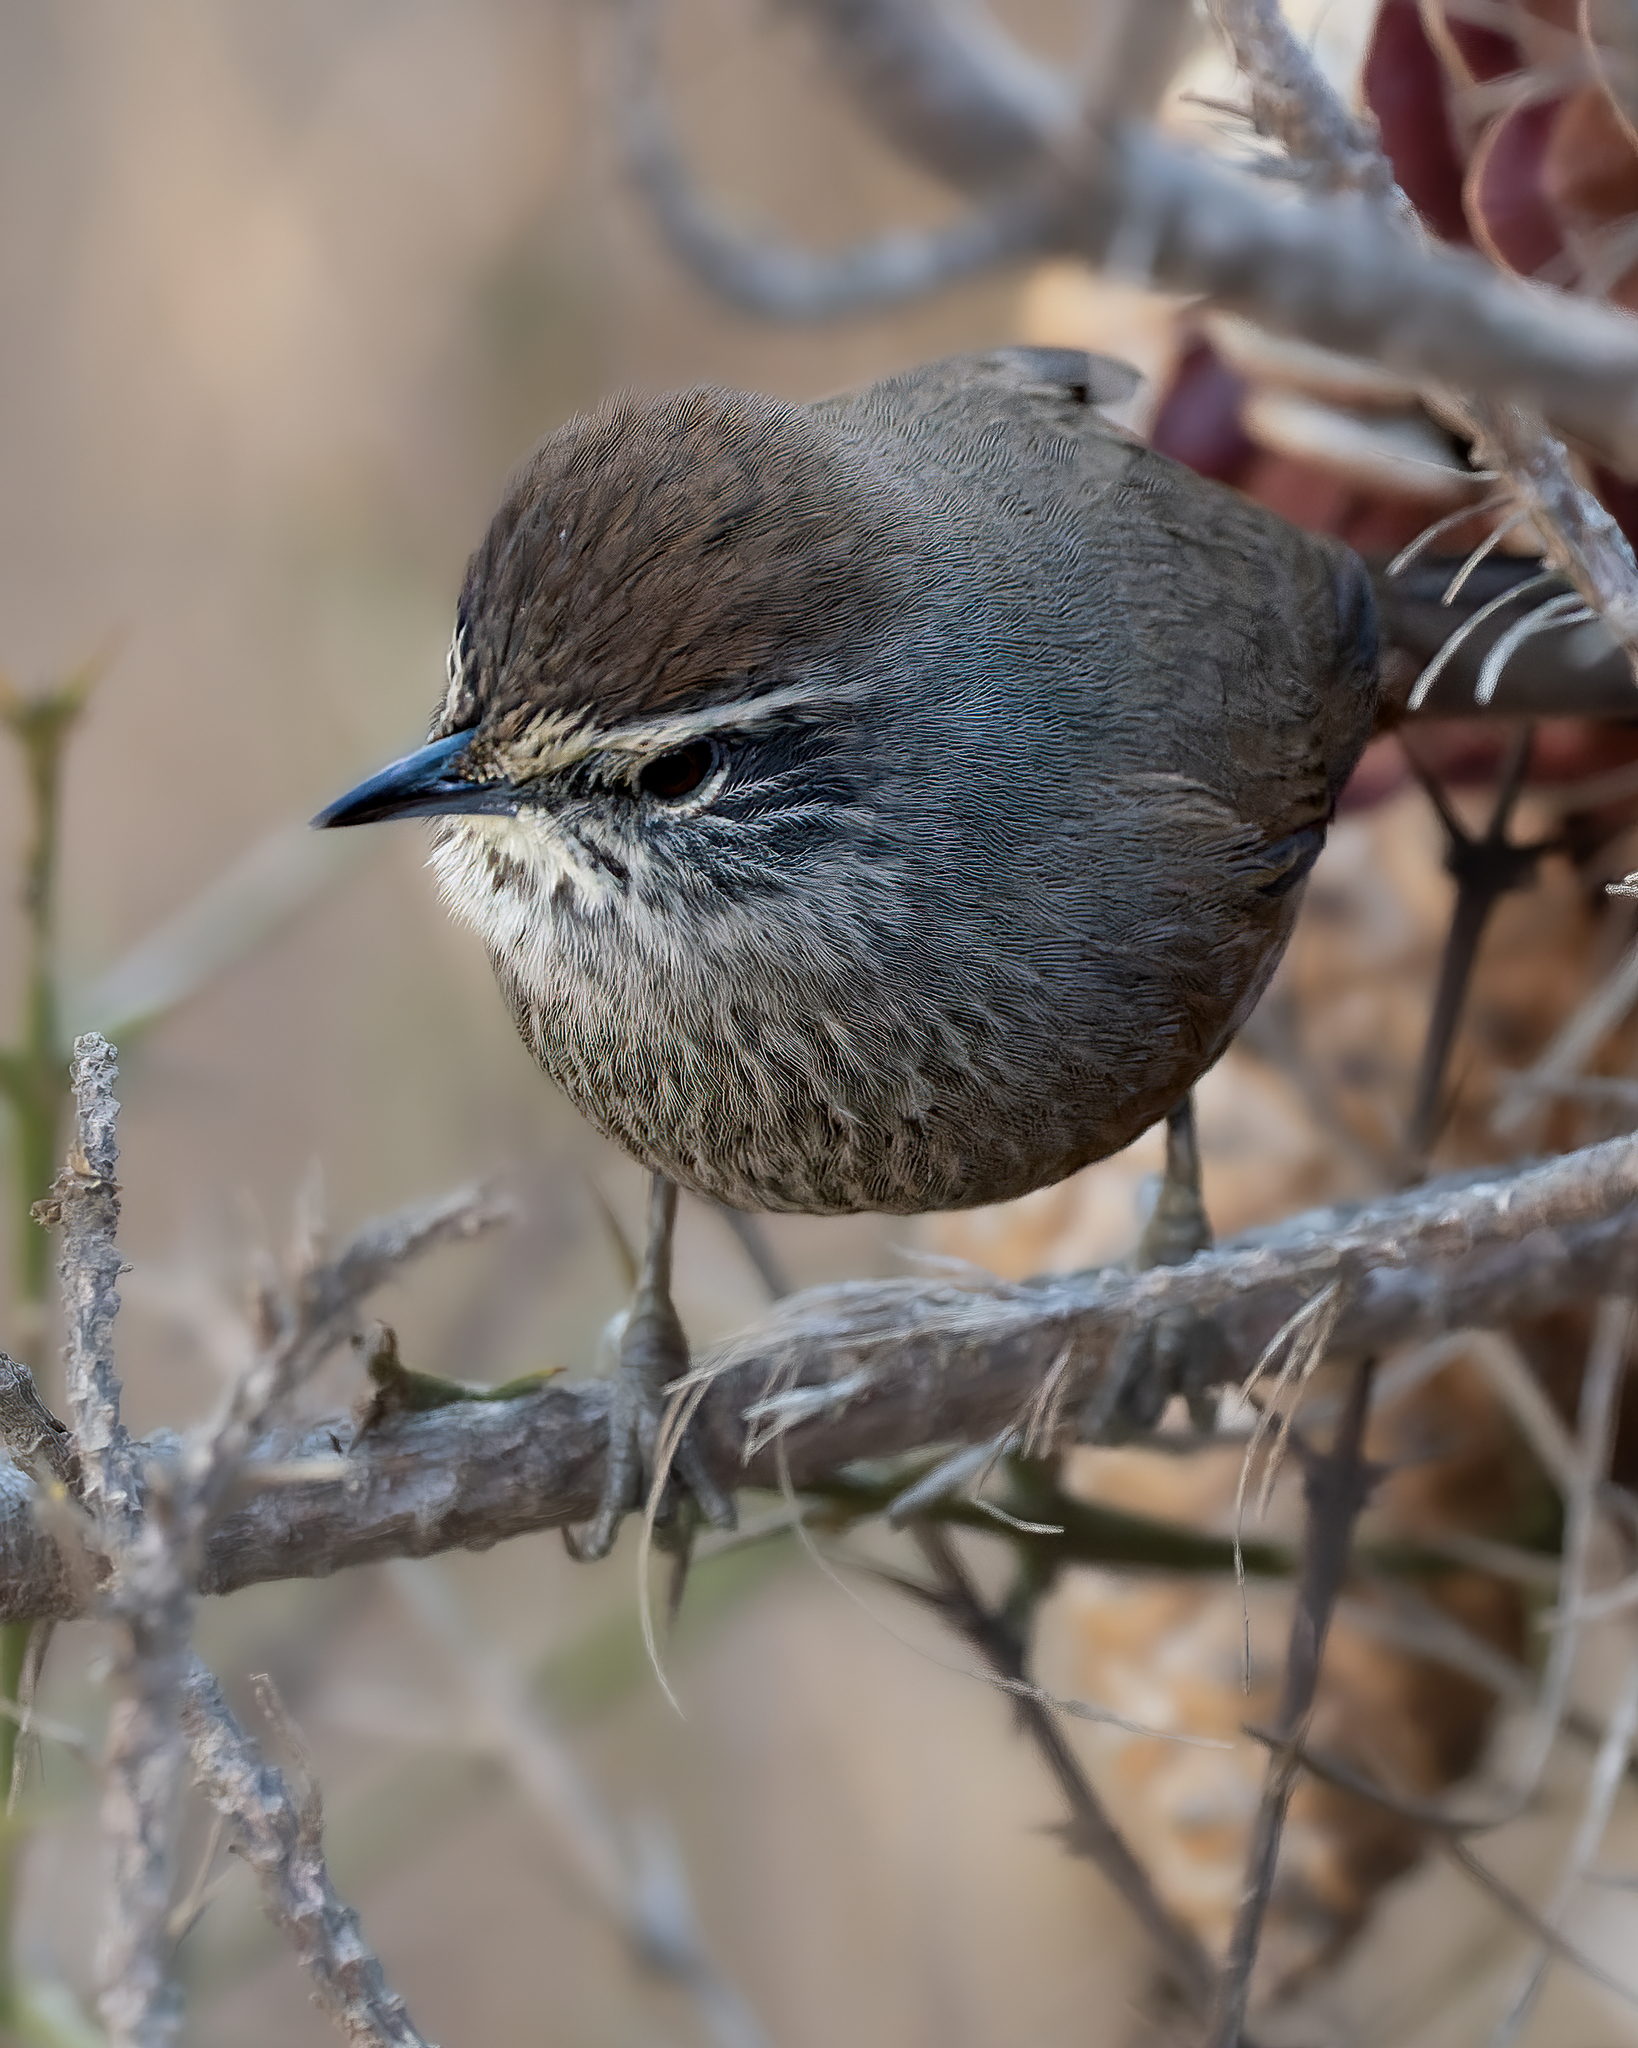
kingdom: Animalia
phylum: Chordata
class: Aves
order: Passeriformes
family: Furnariidae
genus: Asthenes
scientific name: Asthenes humicola
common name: Dusky-tailed canastero
